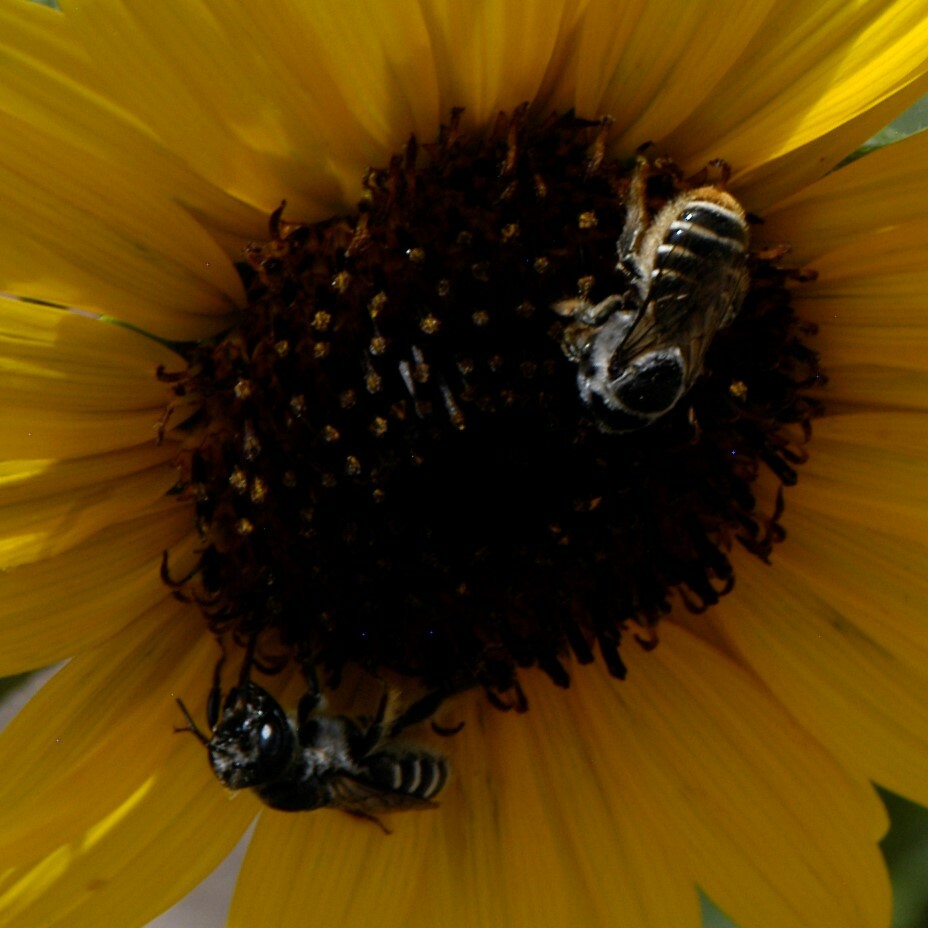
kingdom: Animalia
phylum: Arthropoda
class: Insecta
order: Hymenoptera
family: Megachilidae
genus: Lithurgopsis
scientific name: Lithurgopsis apicalis
